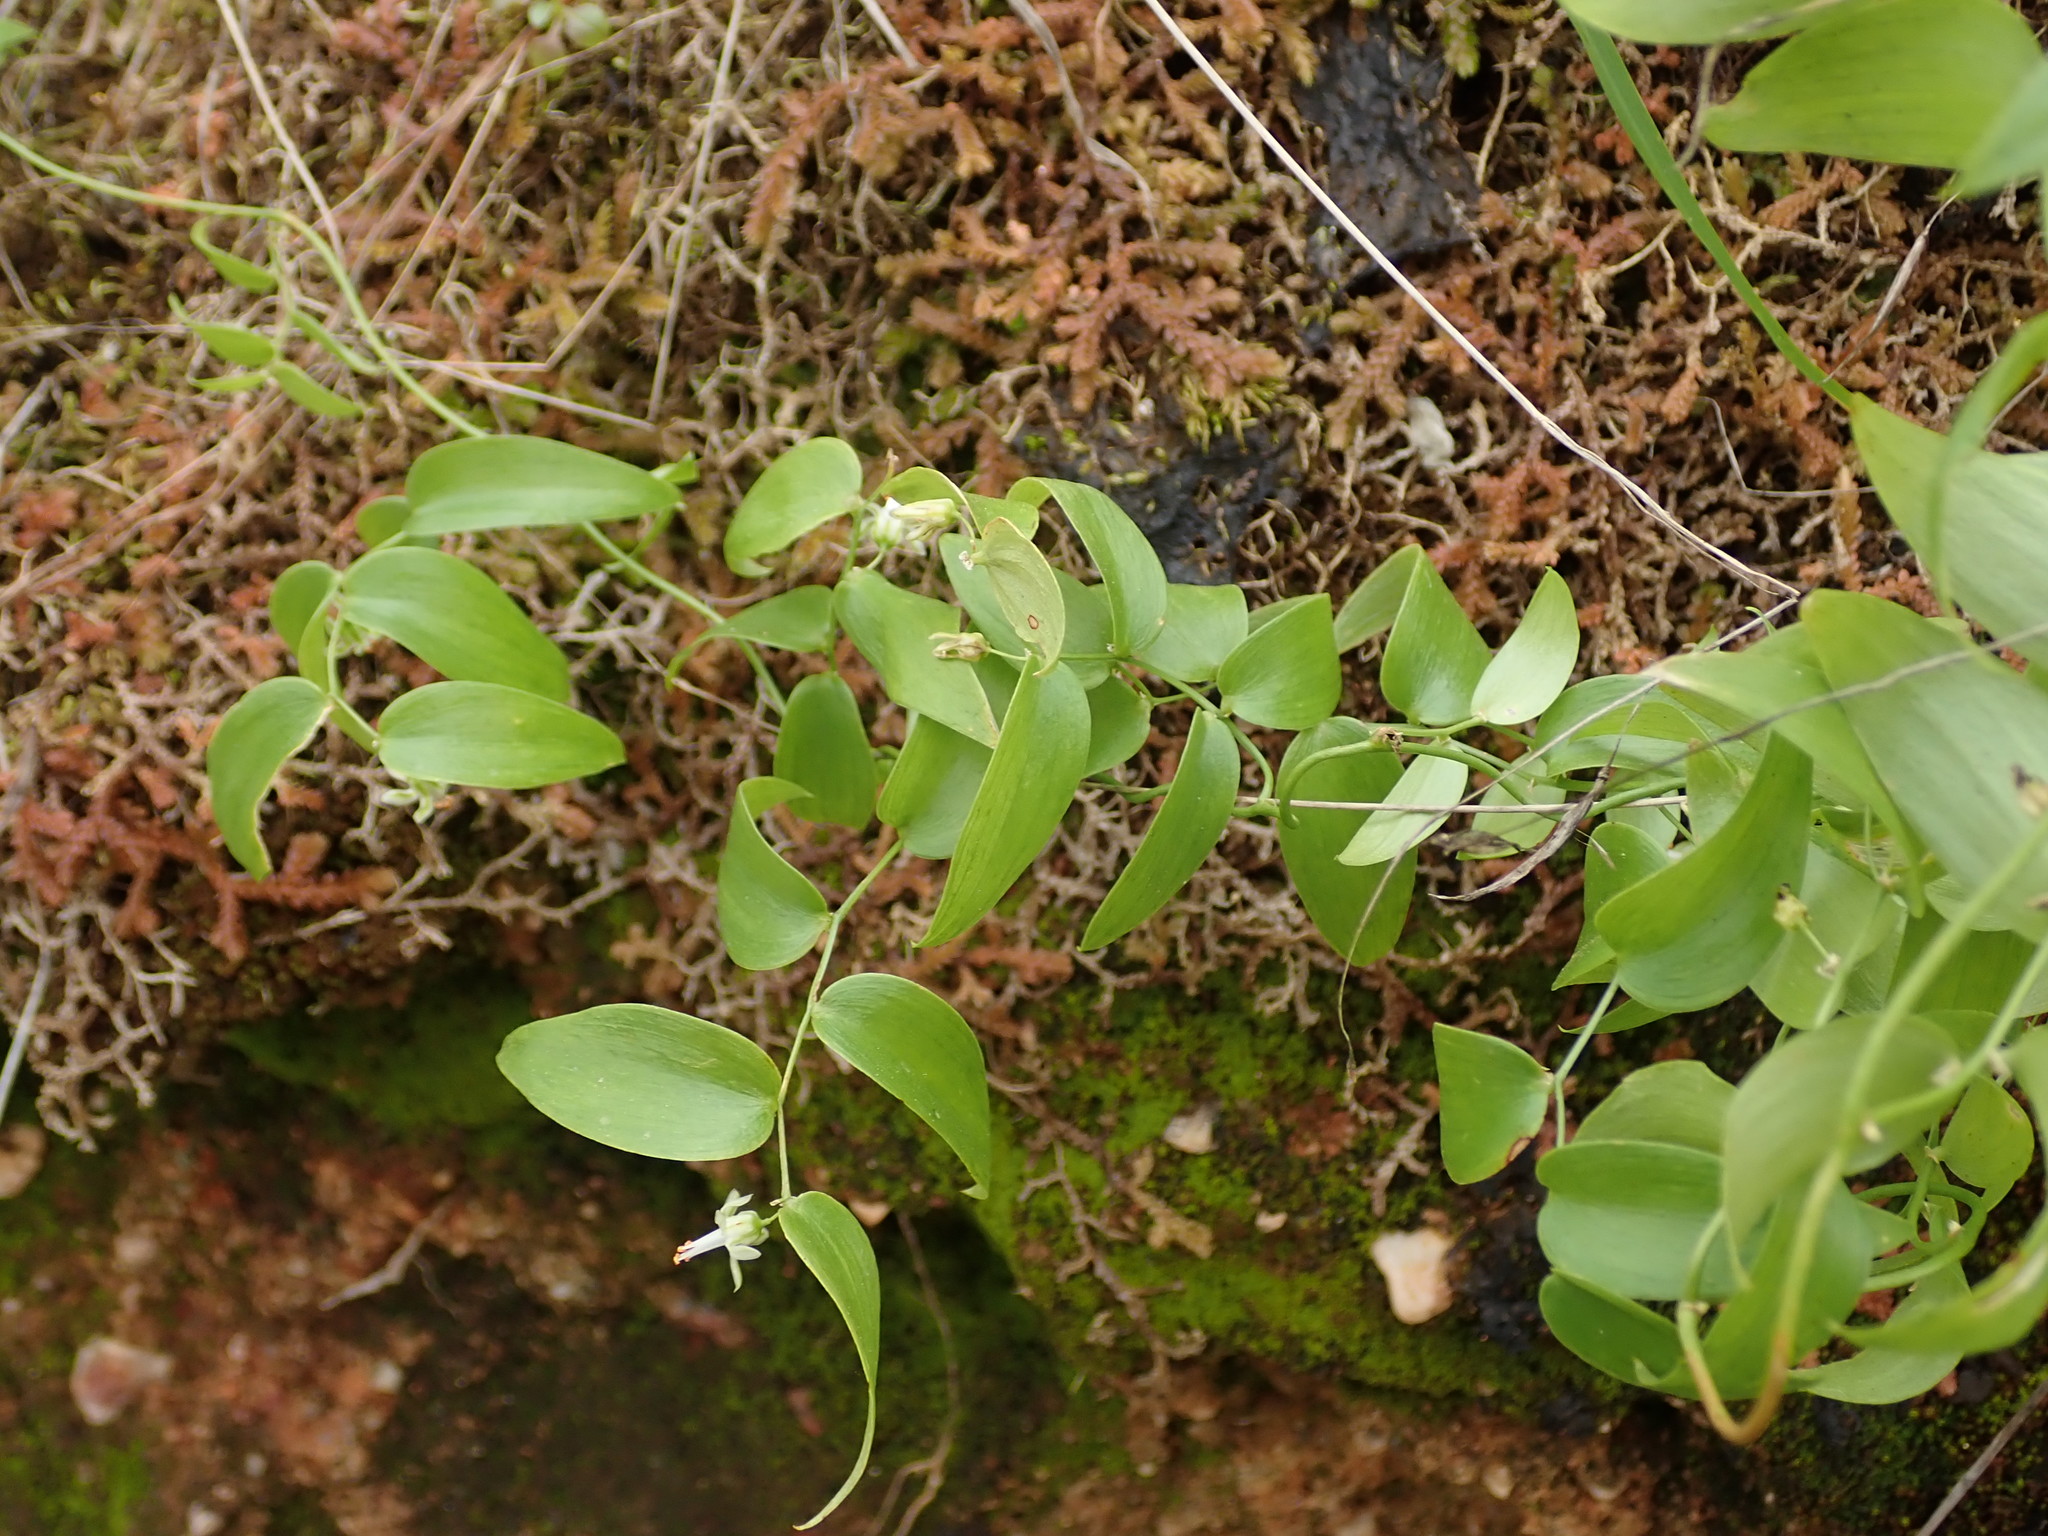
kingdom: Plantae
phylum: Tracheophyta
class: Liliopsida
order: Asparagales
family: Asparagaceae
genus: Asparagus
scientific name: Asparagus asparagoides
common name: African asparagus fern
